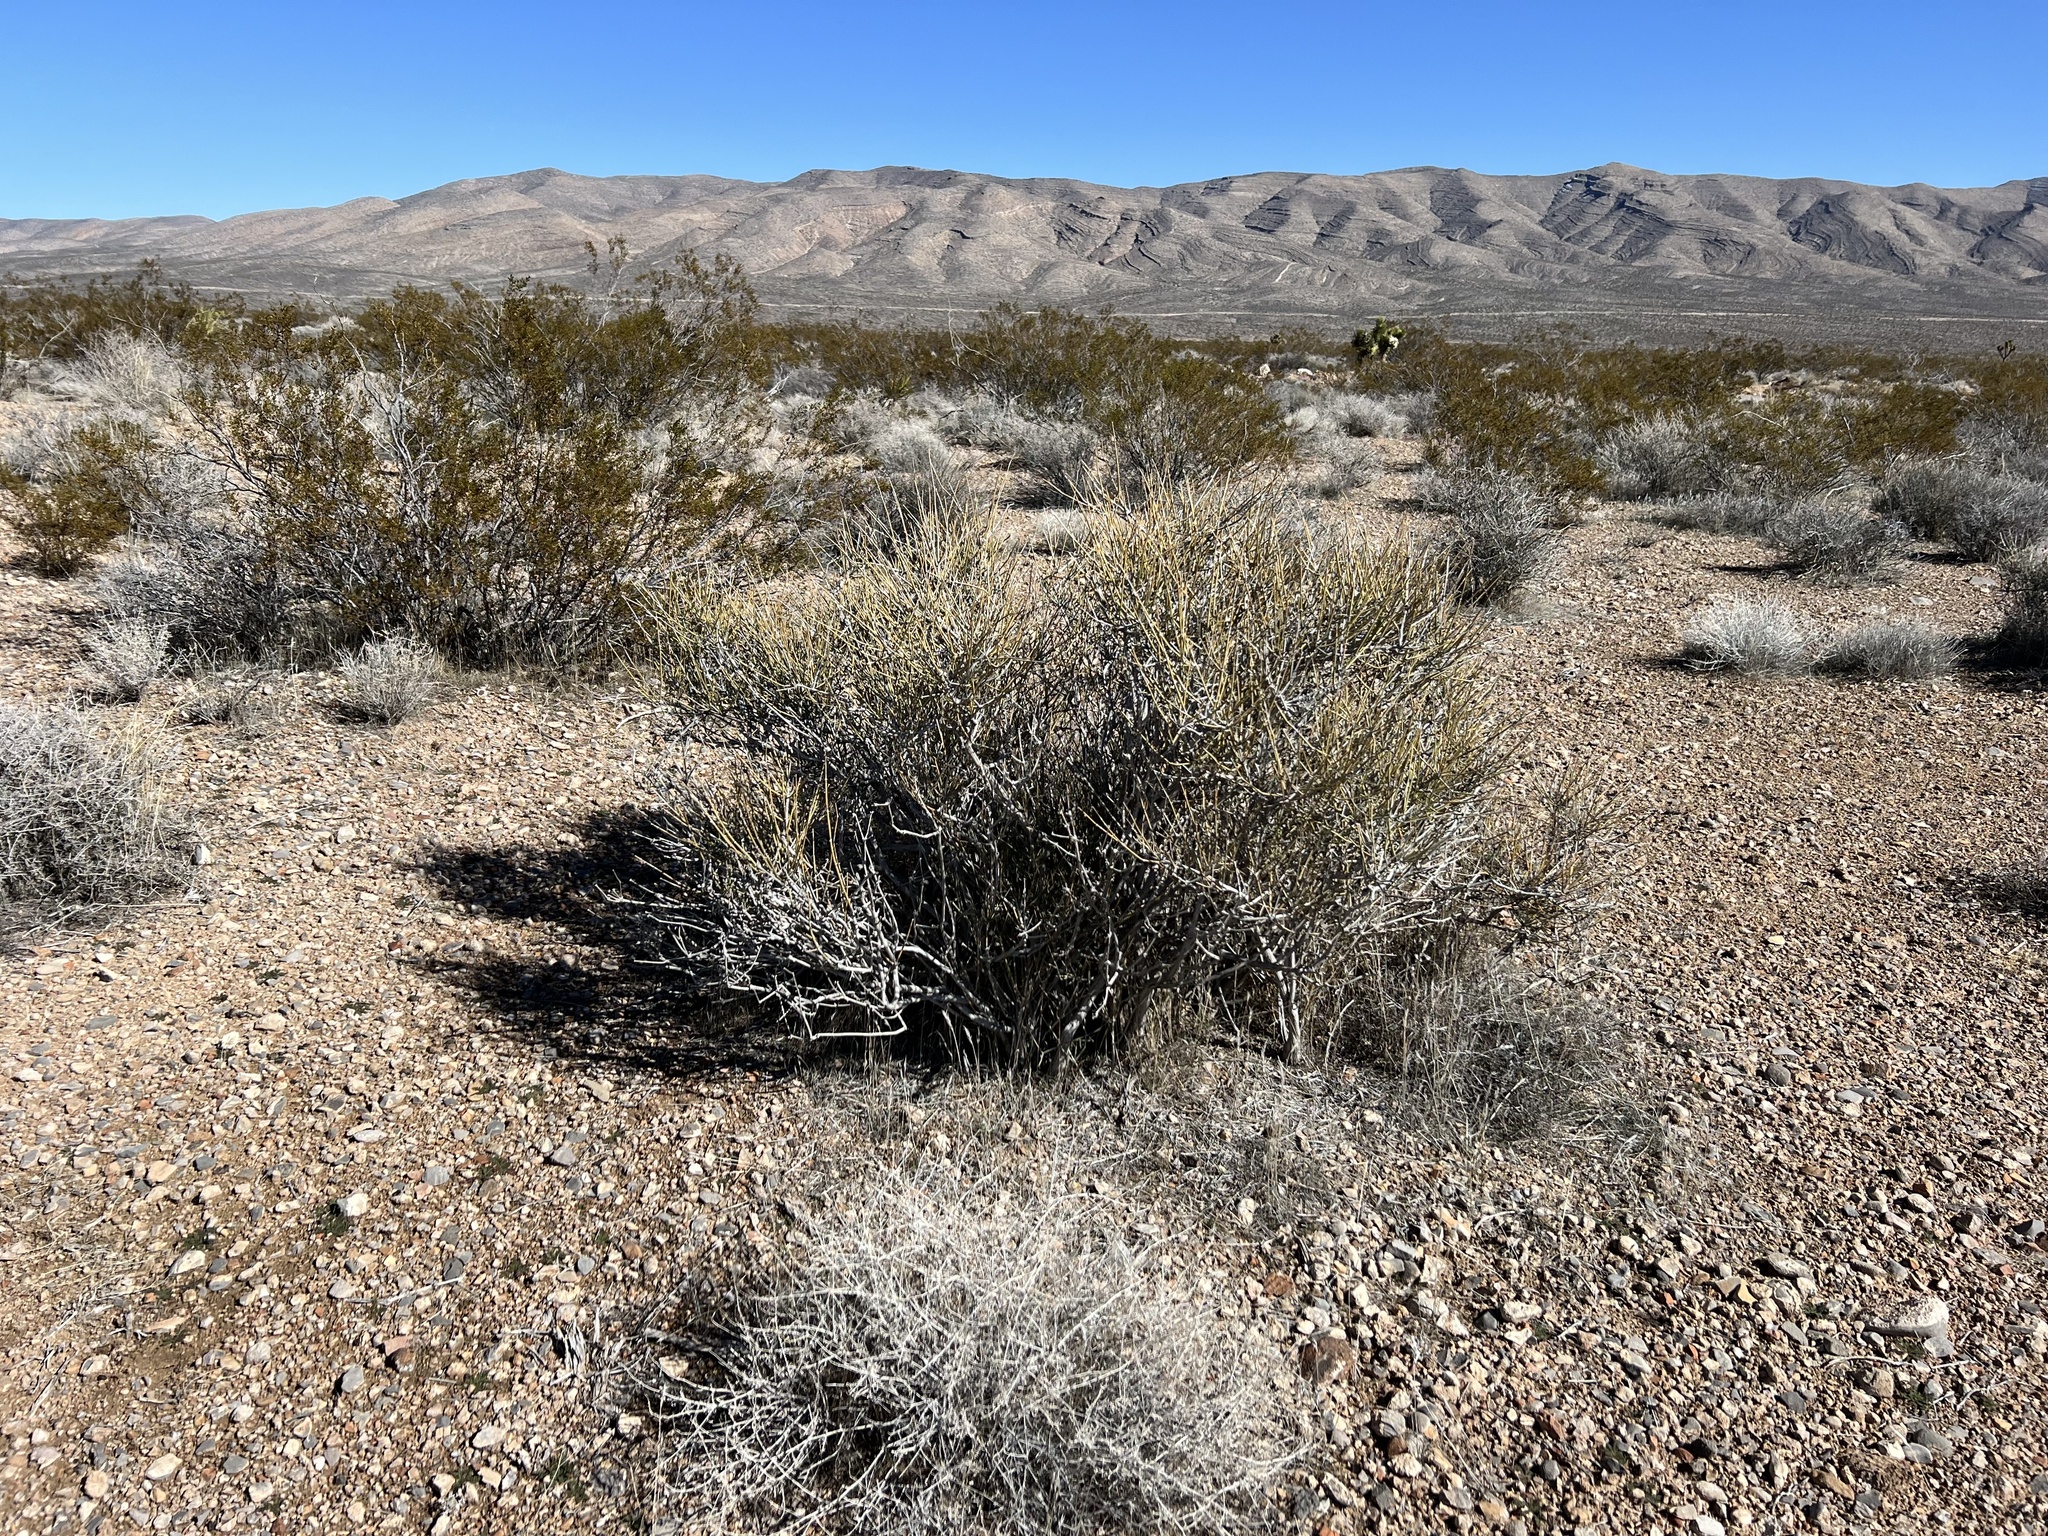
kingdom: Plantae
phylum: Tracheophyta
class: Gnetopsida
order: Ephedrales
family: Ephedraceae
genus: Ephedra
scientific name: Ephedra nevadensis
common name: Gray ephedra
